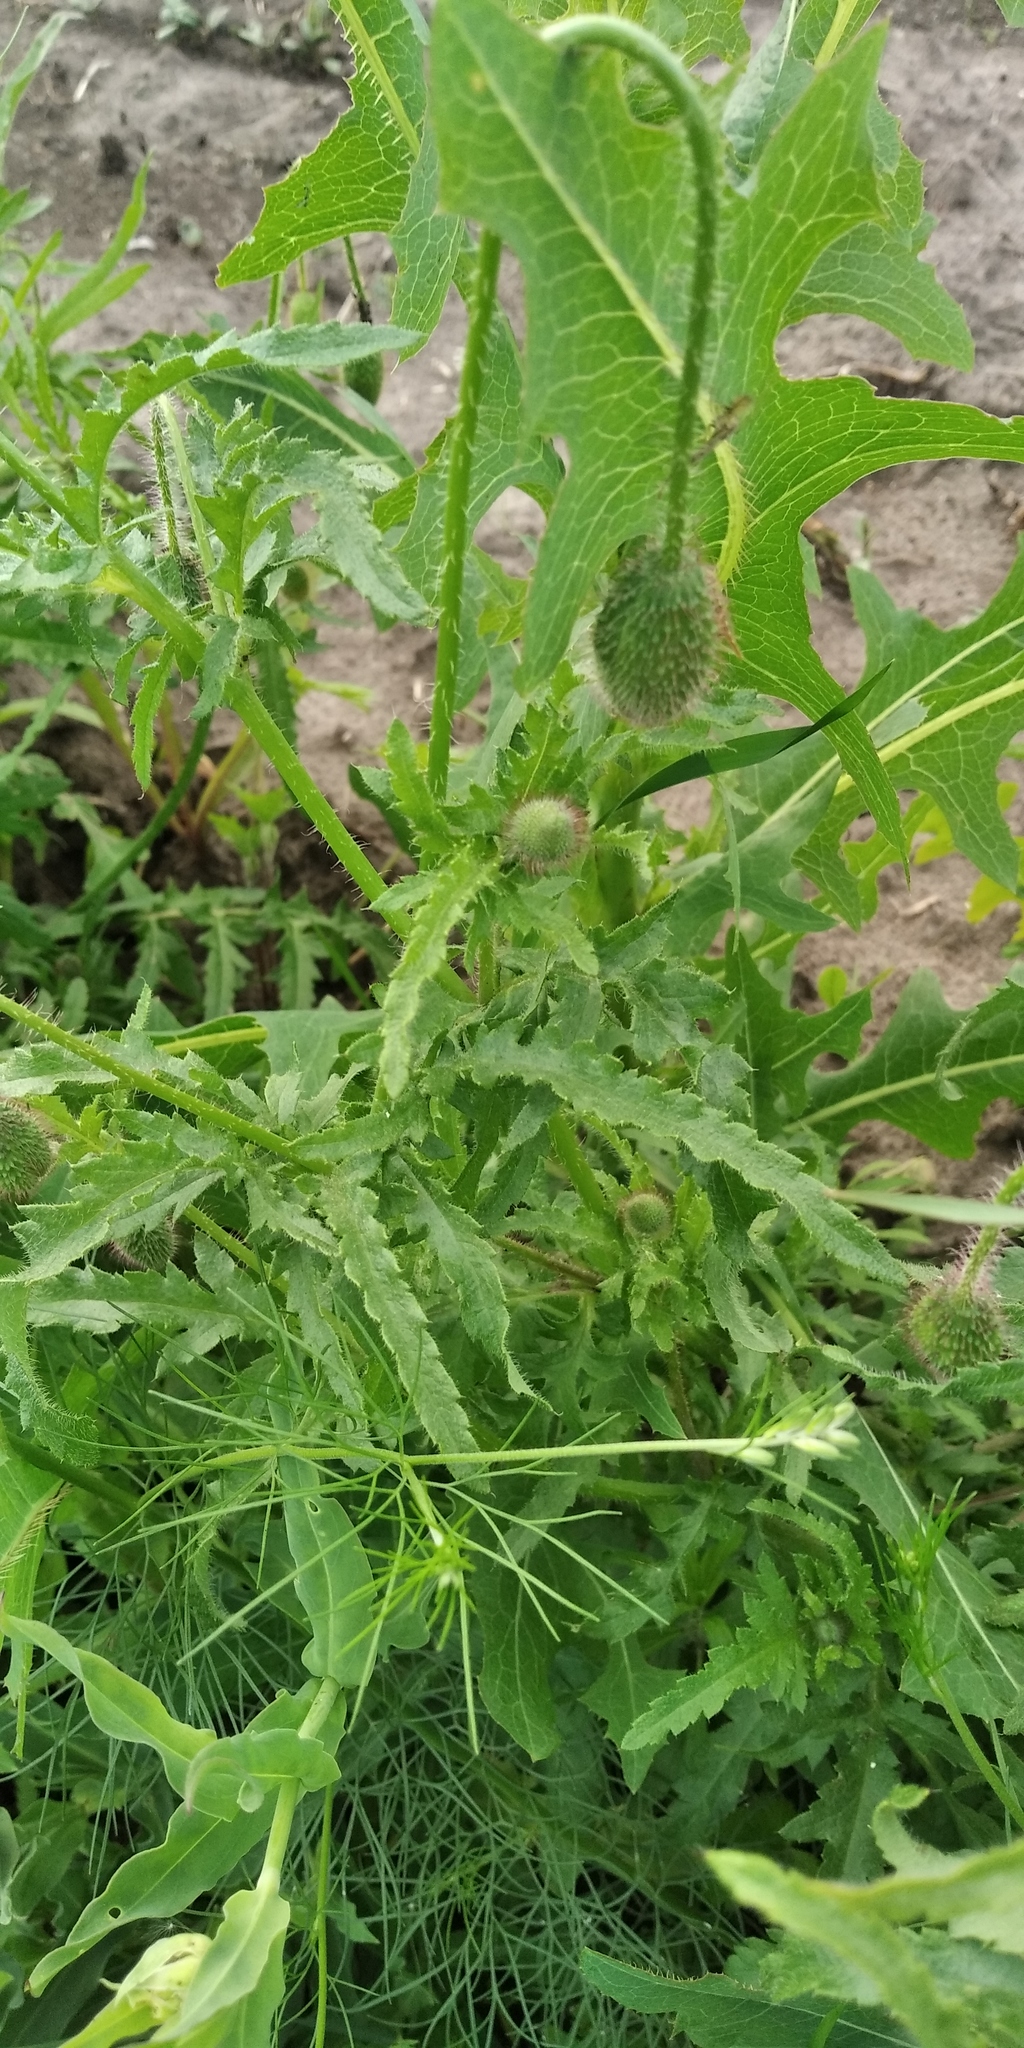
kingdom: Plantae
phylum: Tracheophyta
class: Magnoliopsida
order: Ranunculales
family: Papaveraceae
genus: Papaver
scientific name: Papaver rhoeas
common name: Corn poppy
